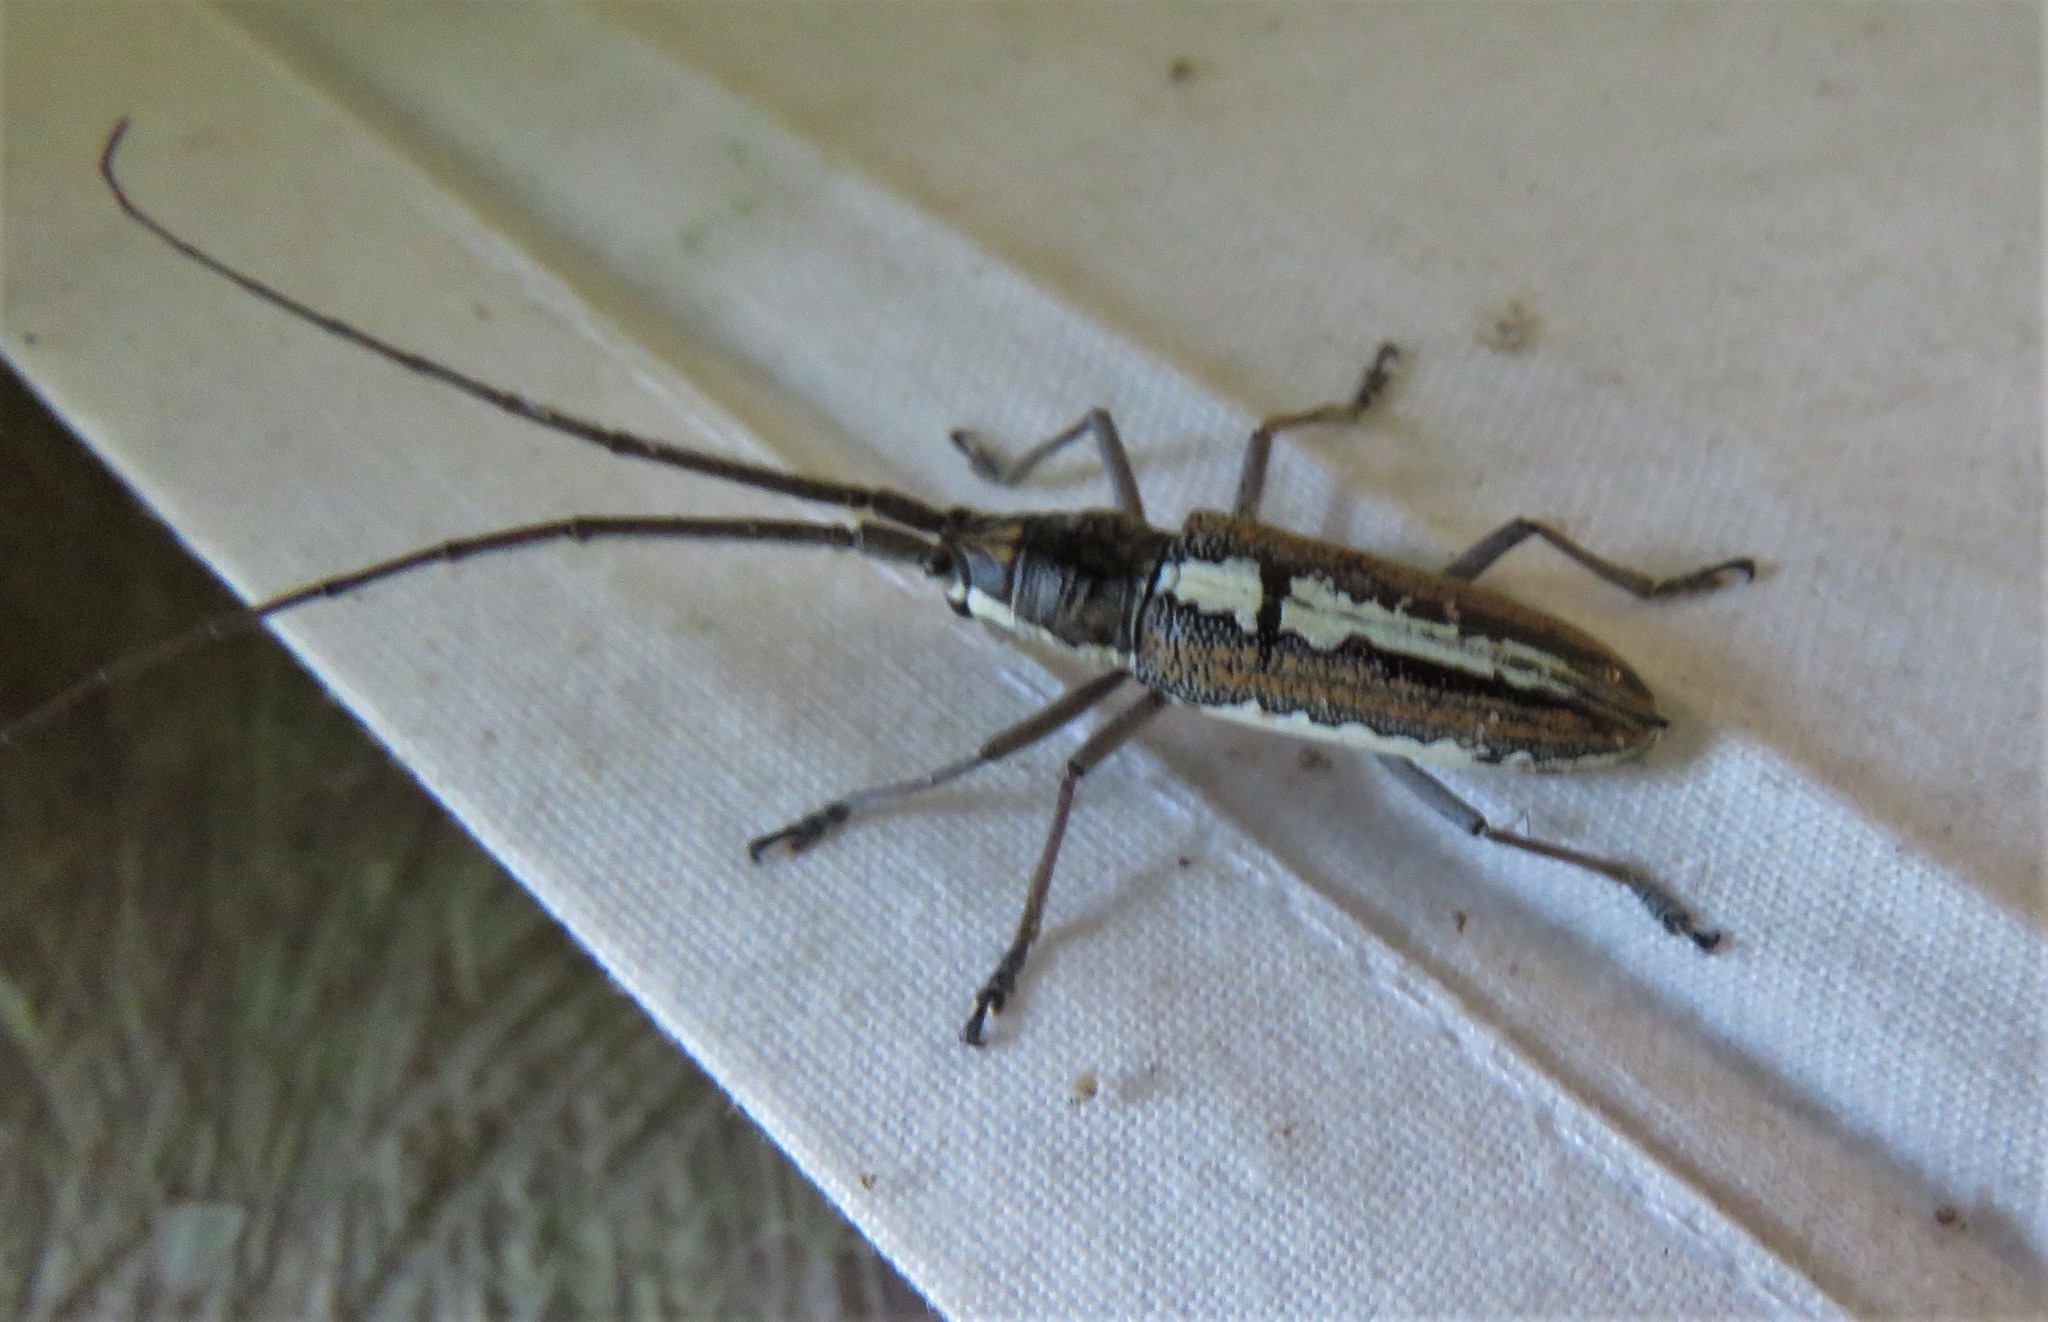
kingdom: Animalia
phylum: Arthropoda
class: Insecta
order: Coleoptera
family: Cerambycidae
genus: Neoptychodes
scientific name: Neoptychodes trilineatus
